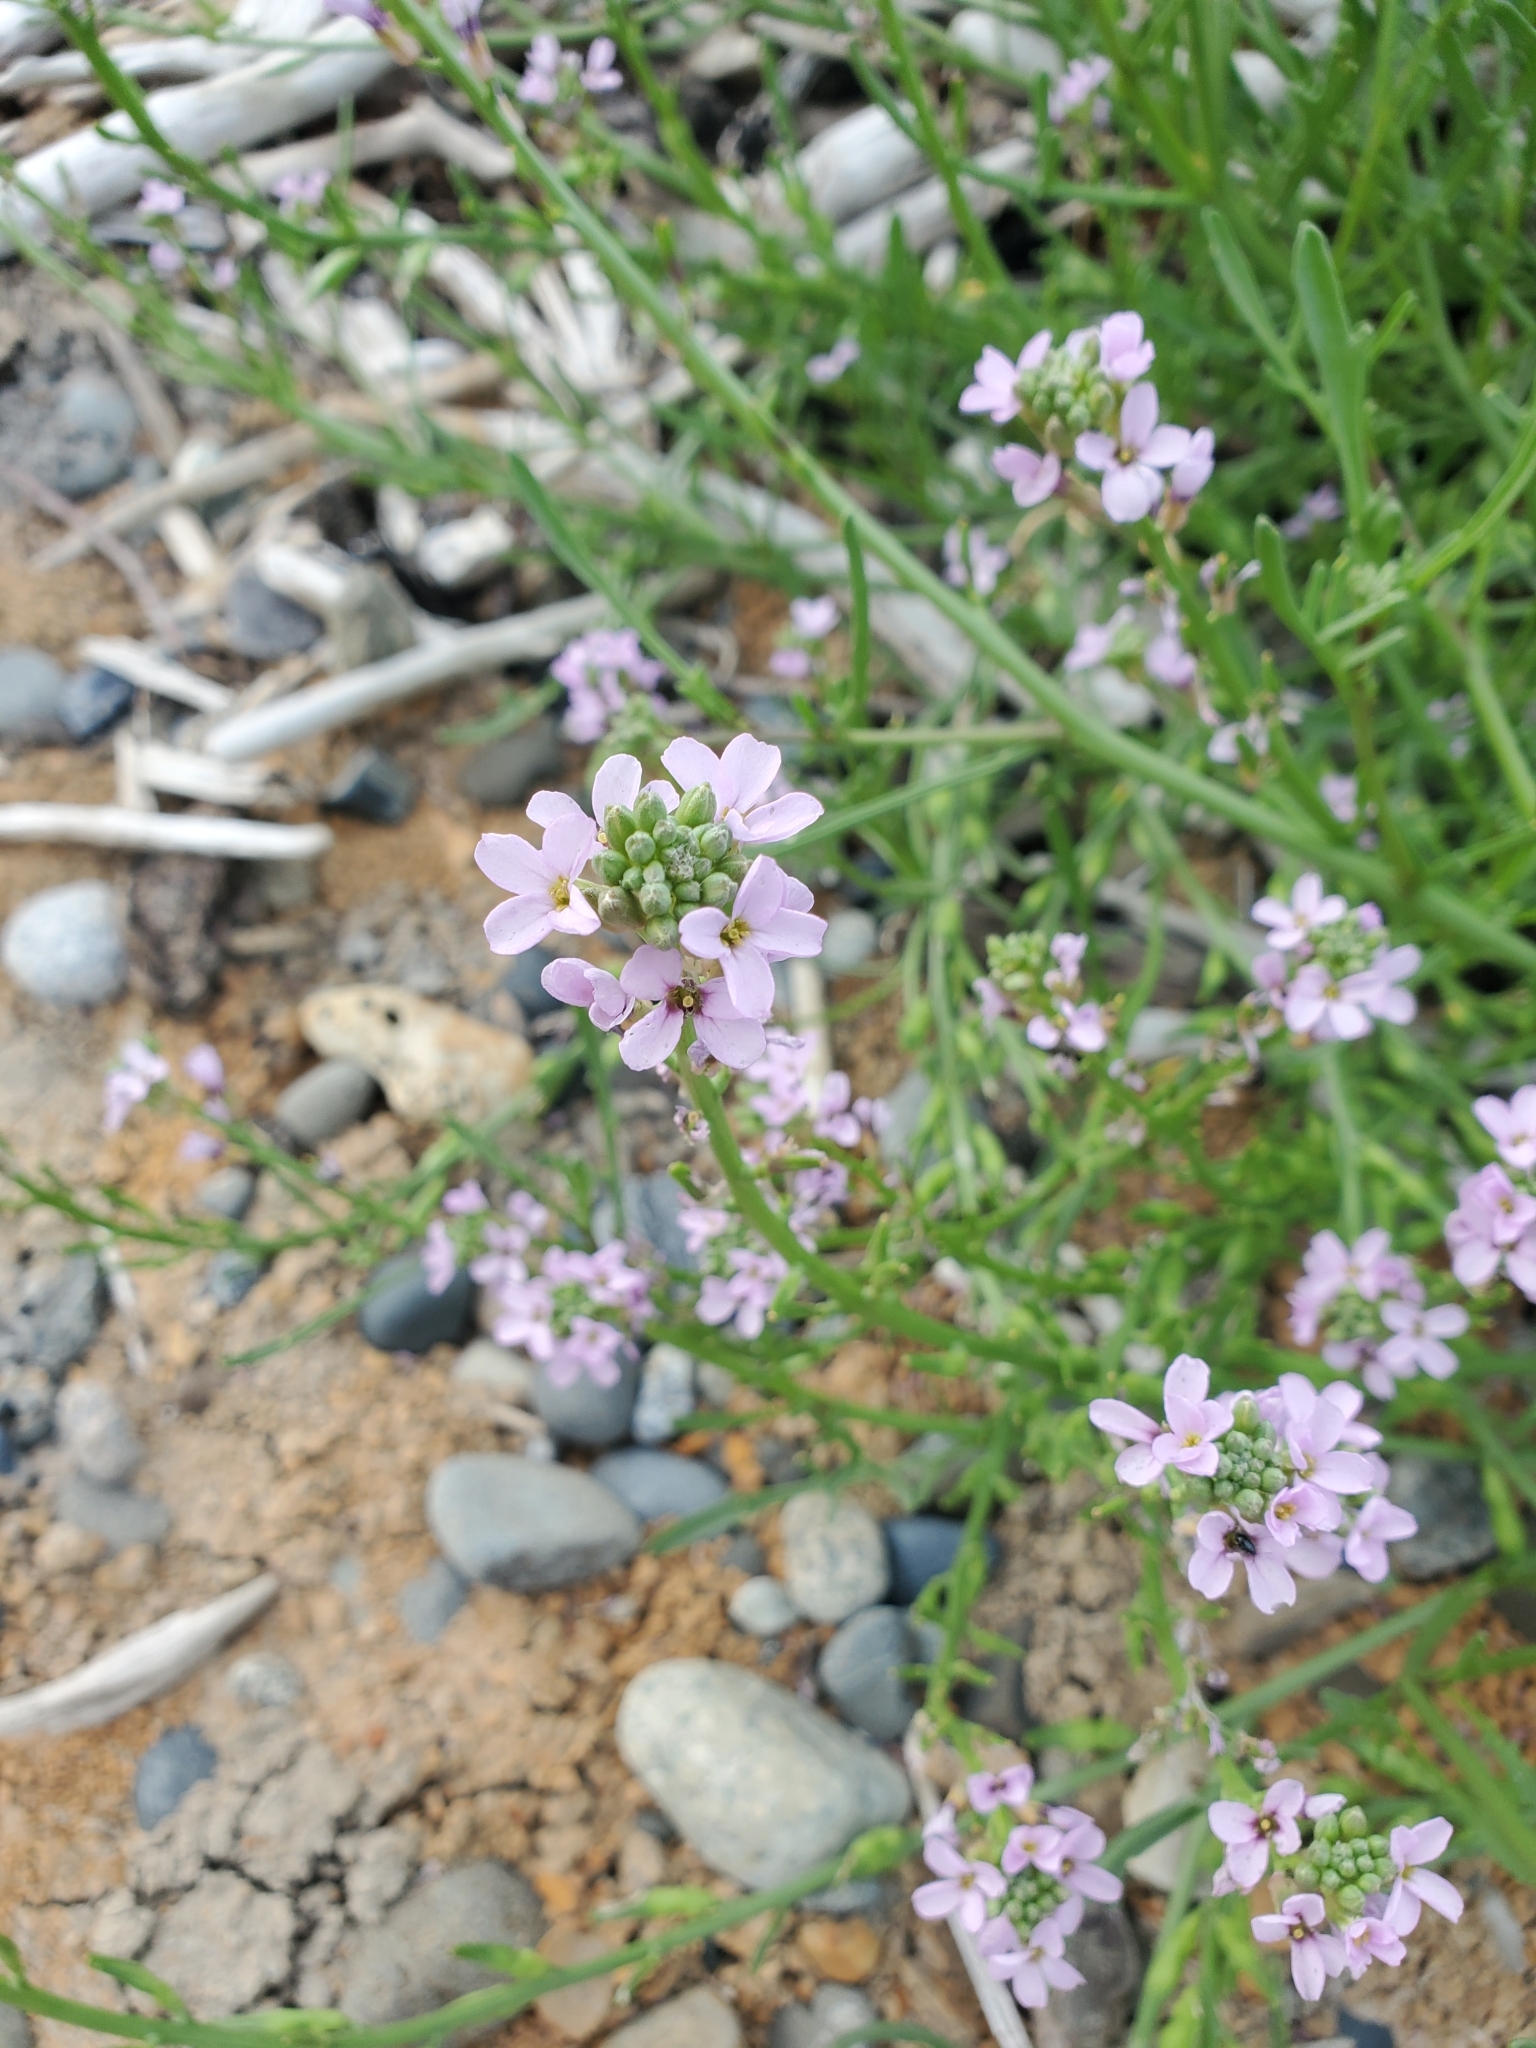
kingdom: Plantae
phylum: Tracheophyta
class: Magnoliopsida
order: Brassicales
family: Brassicaceae
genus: Cakile
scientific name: Cakile maritima
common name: Sea rocket
